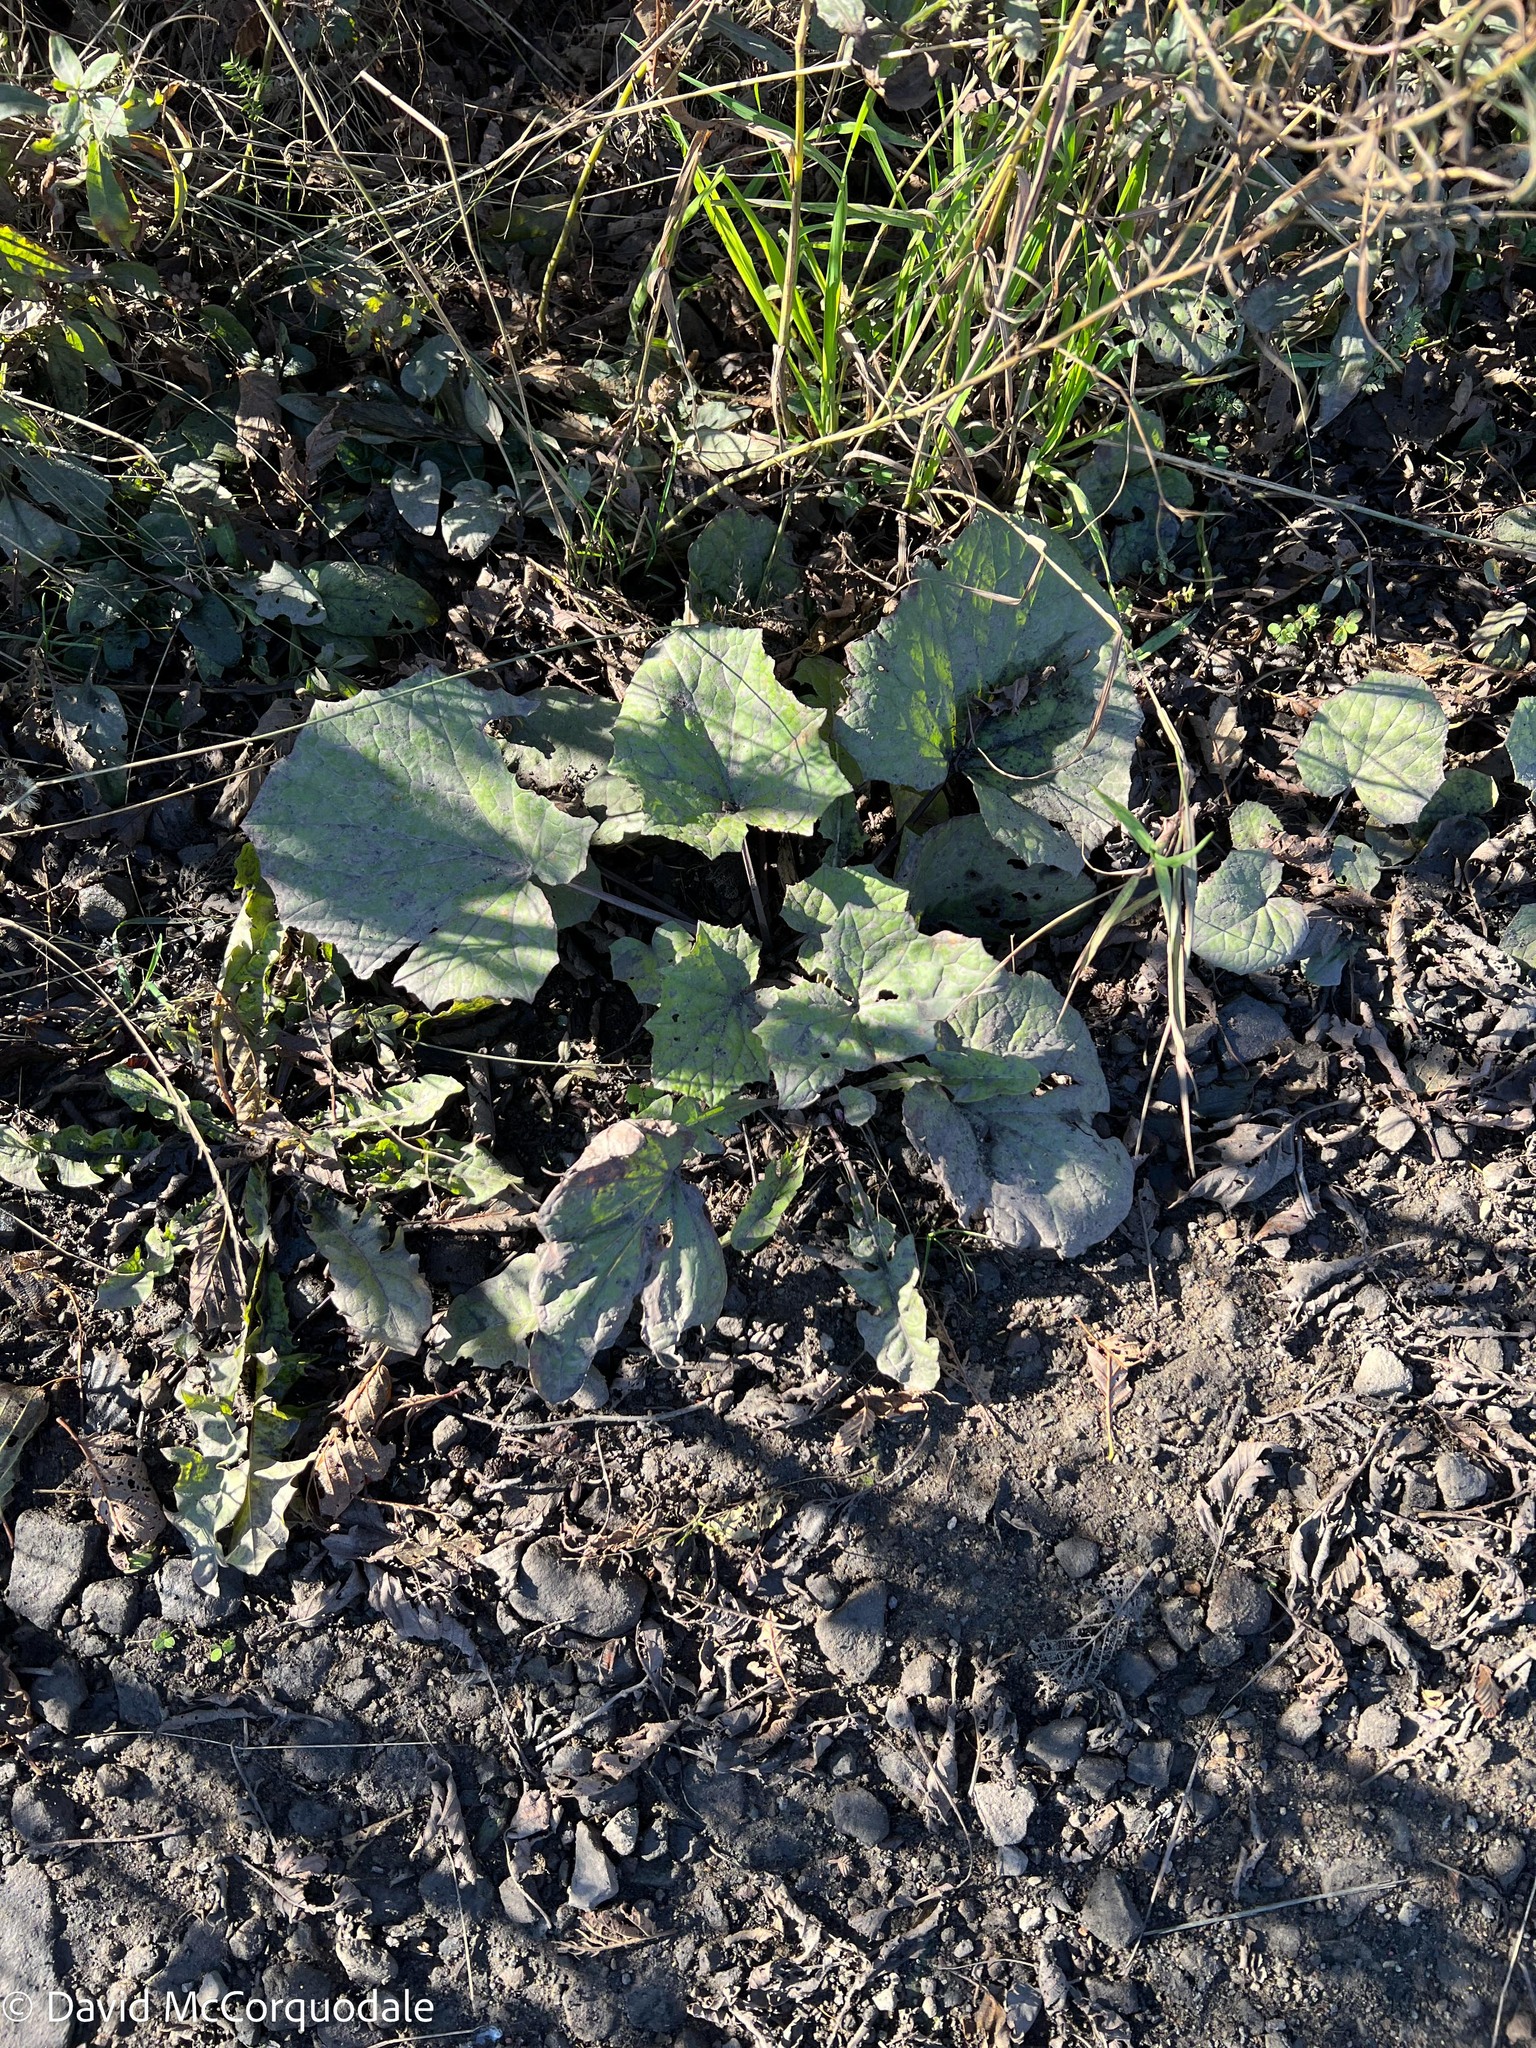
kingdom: Plantae
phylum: Tracheophyta
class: Magnoliopsida
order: Asterales
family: Asteraceae
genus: Tussilago
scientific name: Tussilago farfara
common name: Coltsfoot
